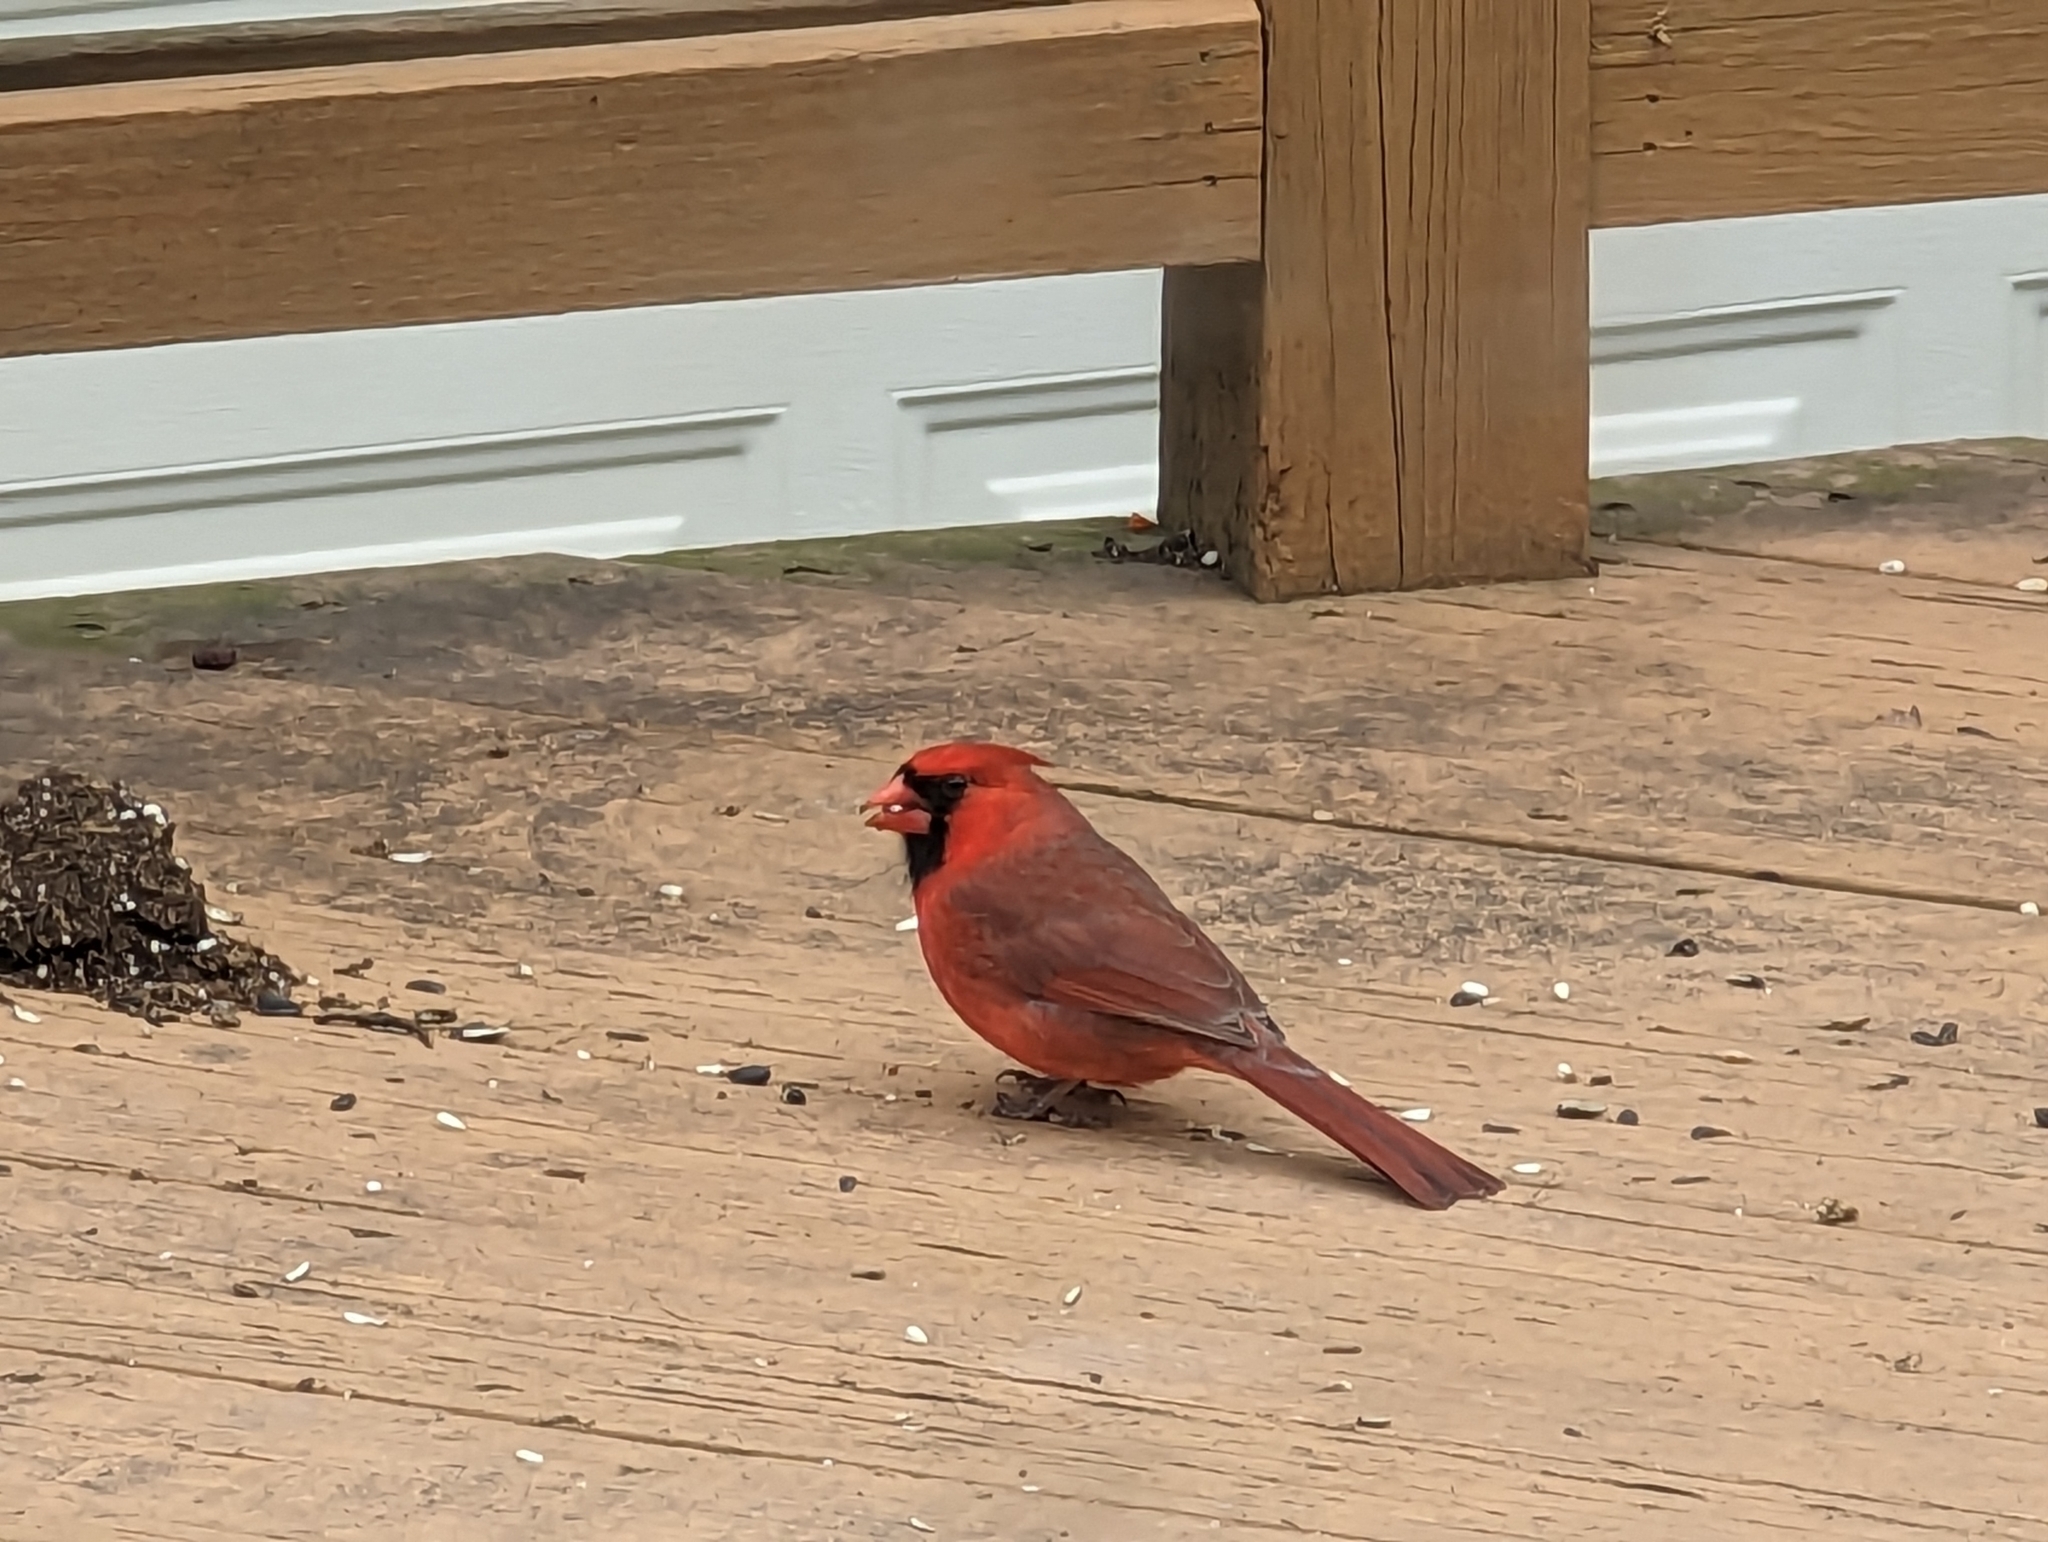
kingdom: Animalia
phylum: Chordata
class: Aves
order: Passeriformes
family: Cardinalidae
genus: Cardinalis
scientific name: Cardinalis cardinalis
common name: Northern cardinal
